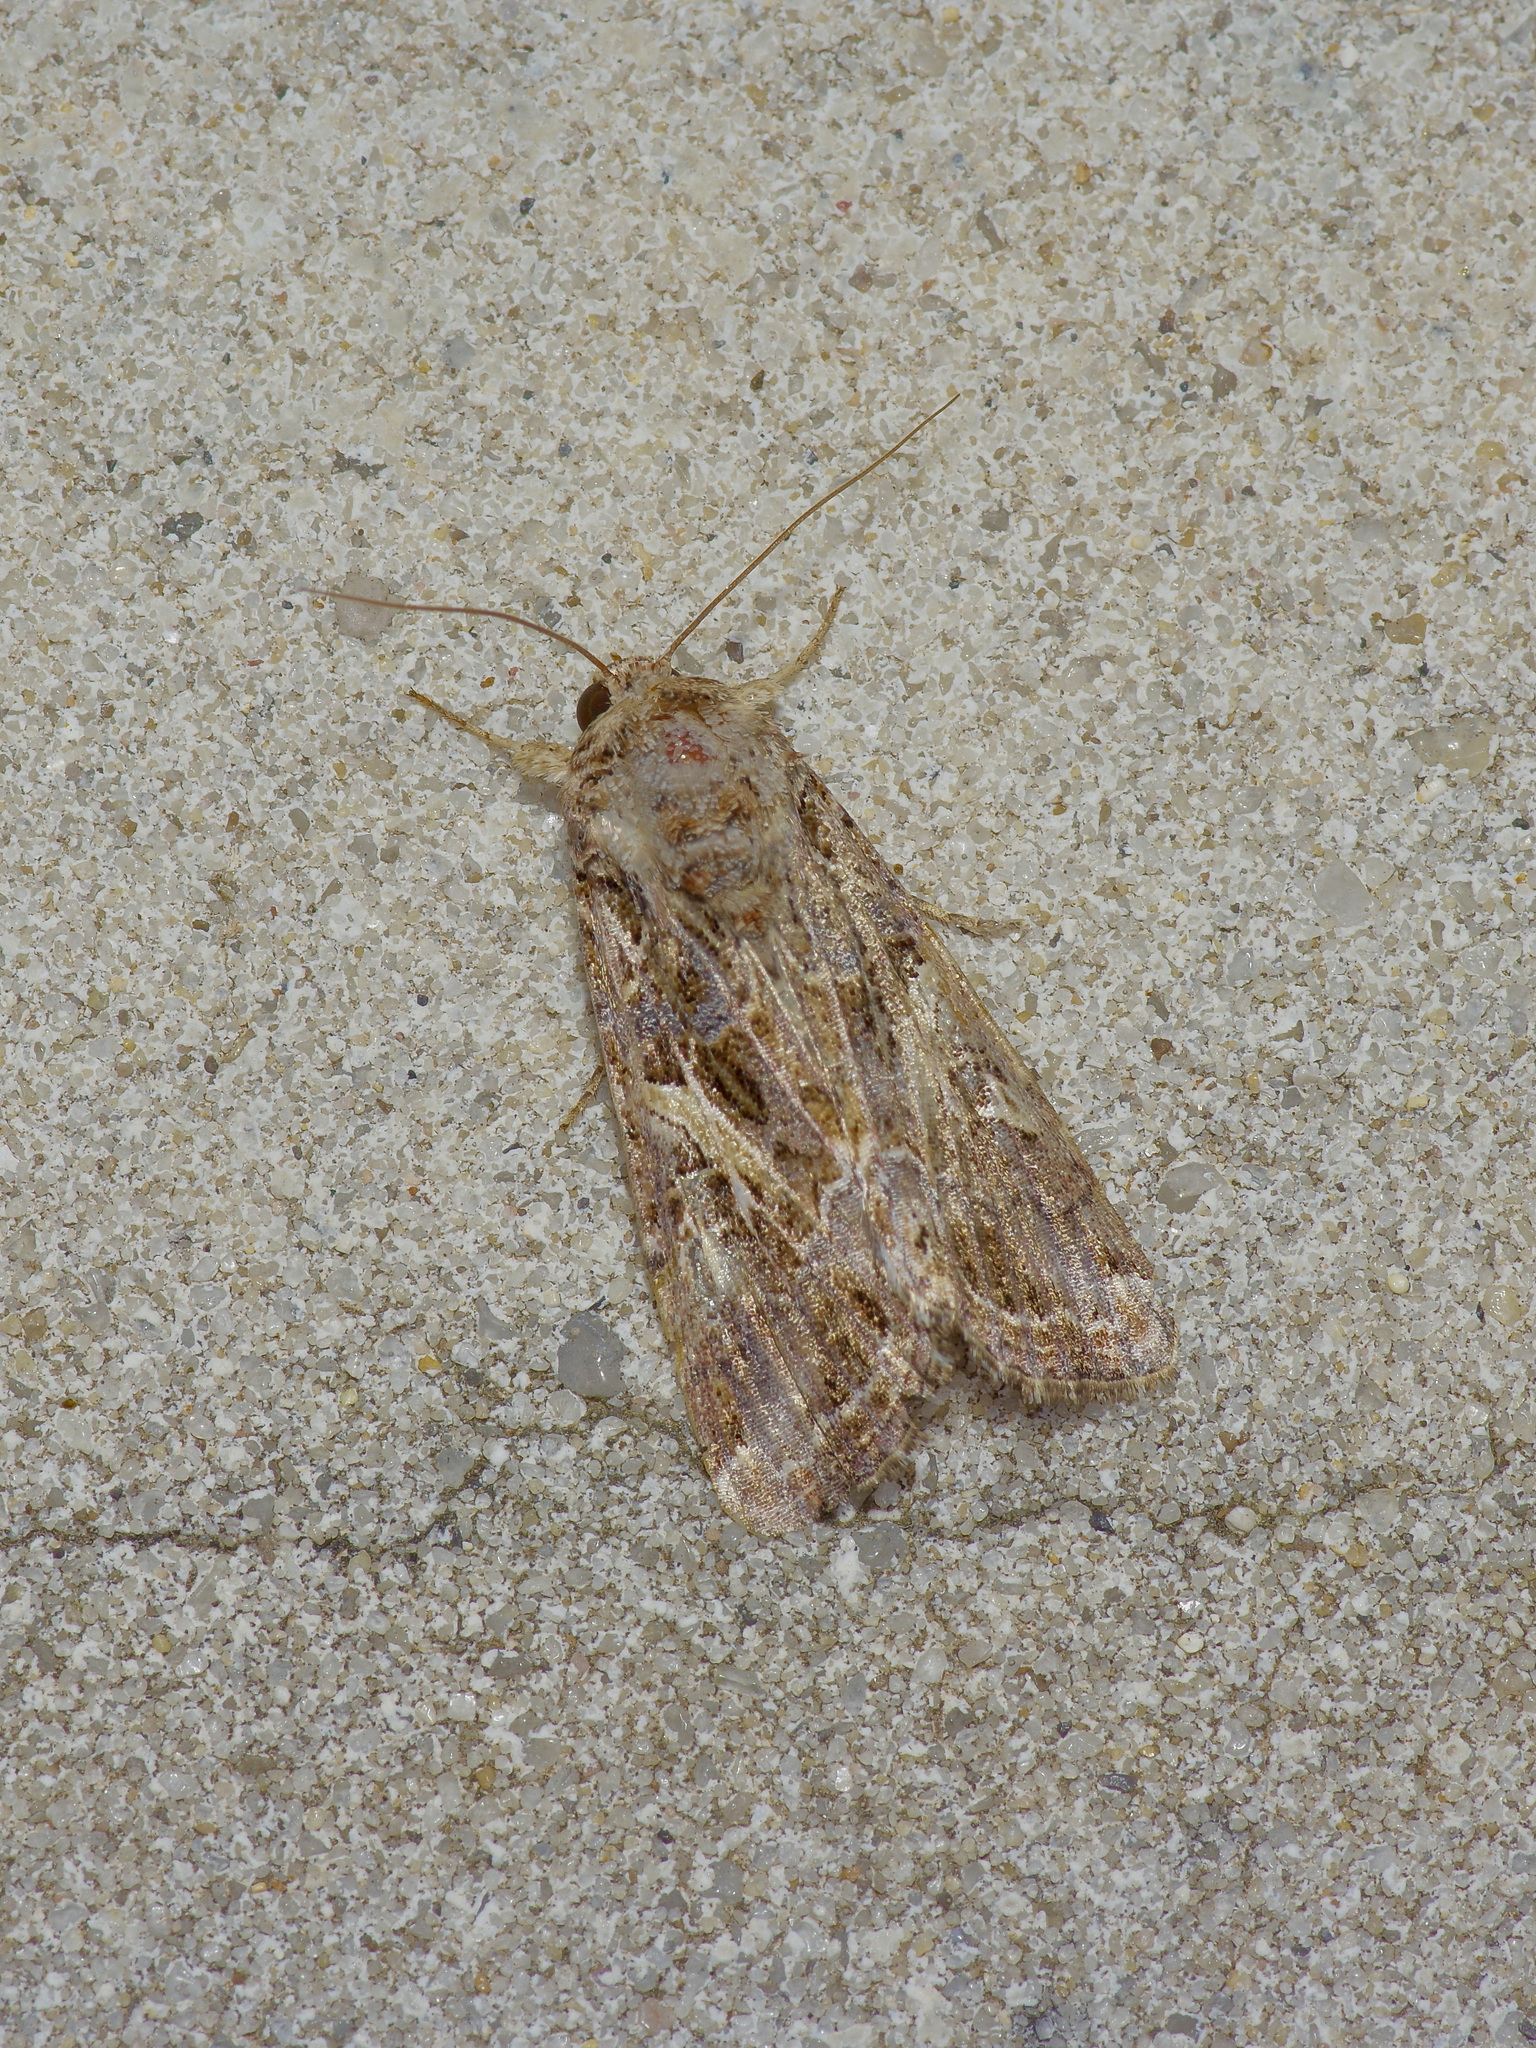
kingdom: Animalia
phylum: Arthropoda
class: Insecta
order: Lepidoptera
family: Noctuidae
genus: Spodoptera
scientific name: Spodoptera ornithogalli
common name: Yellow-striped armyworm
